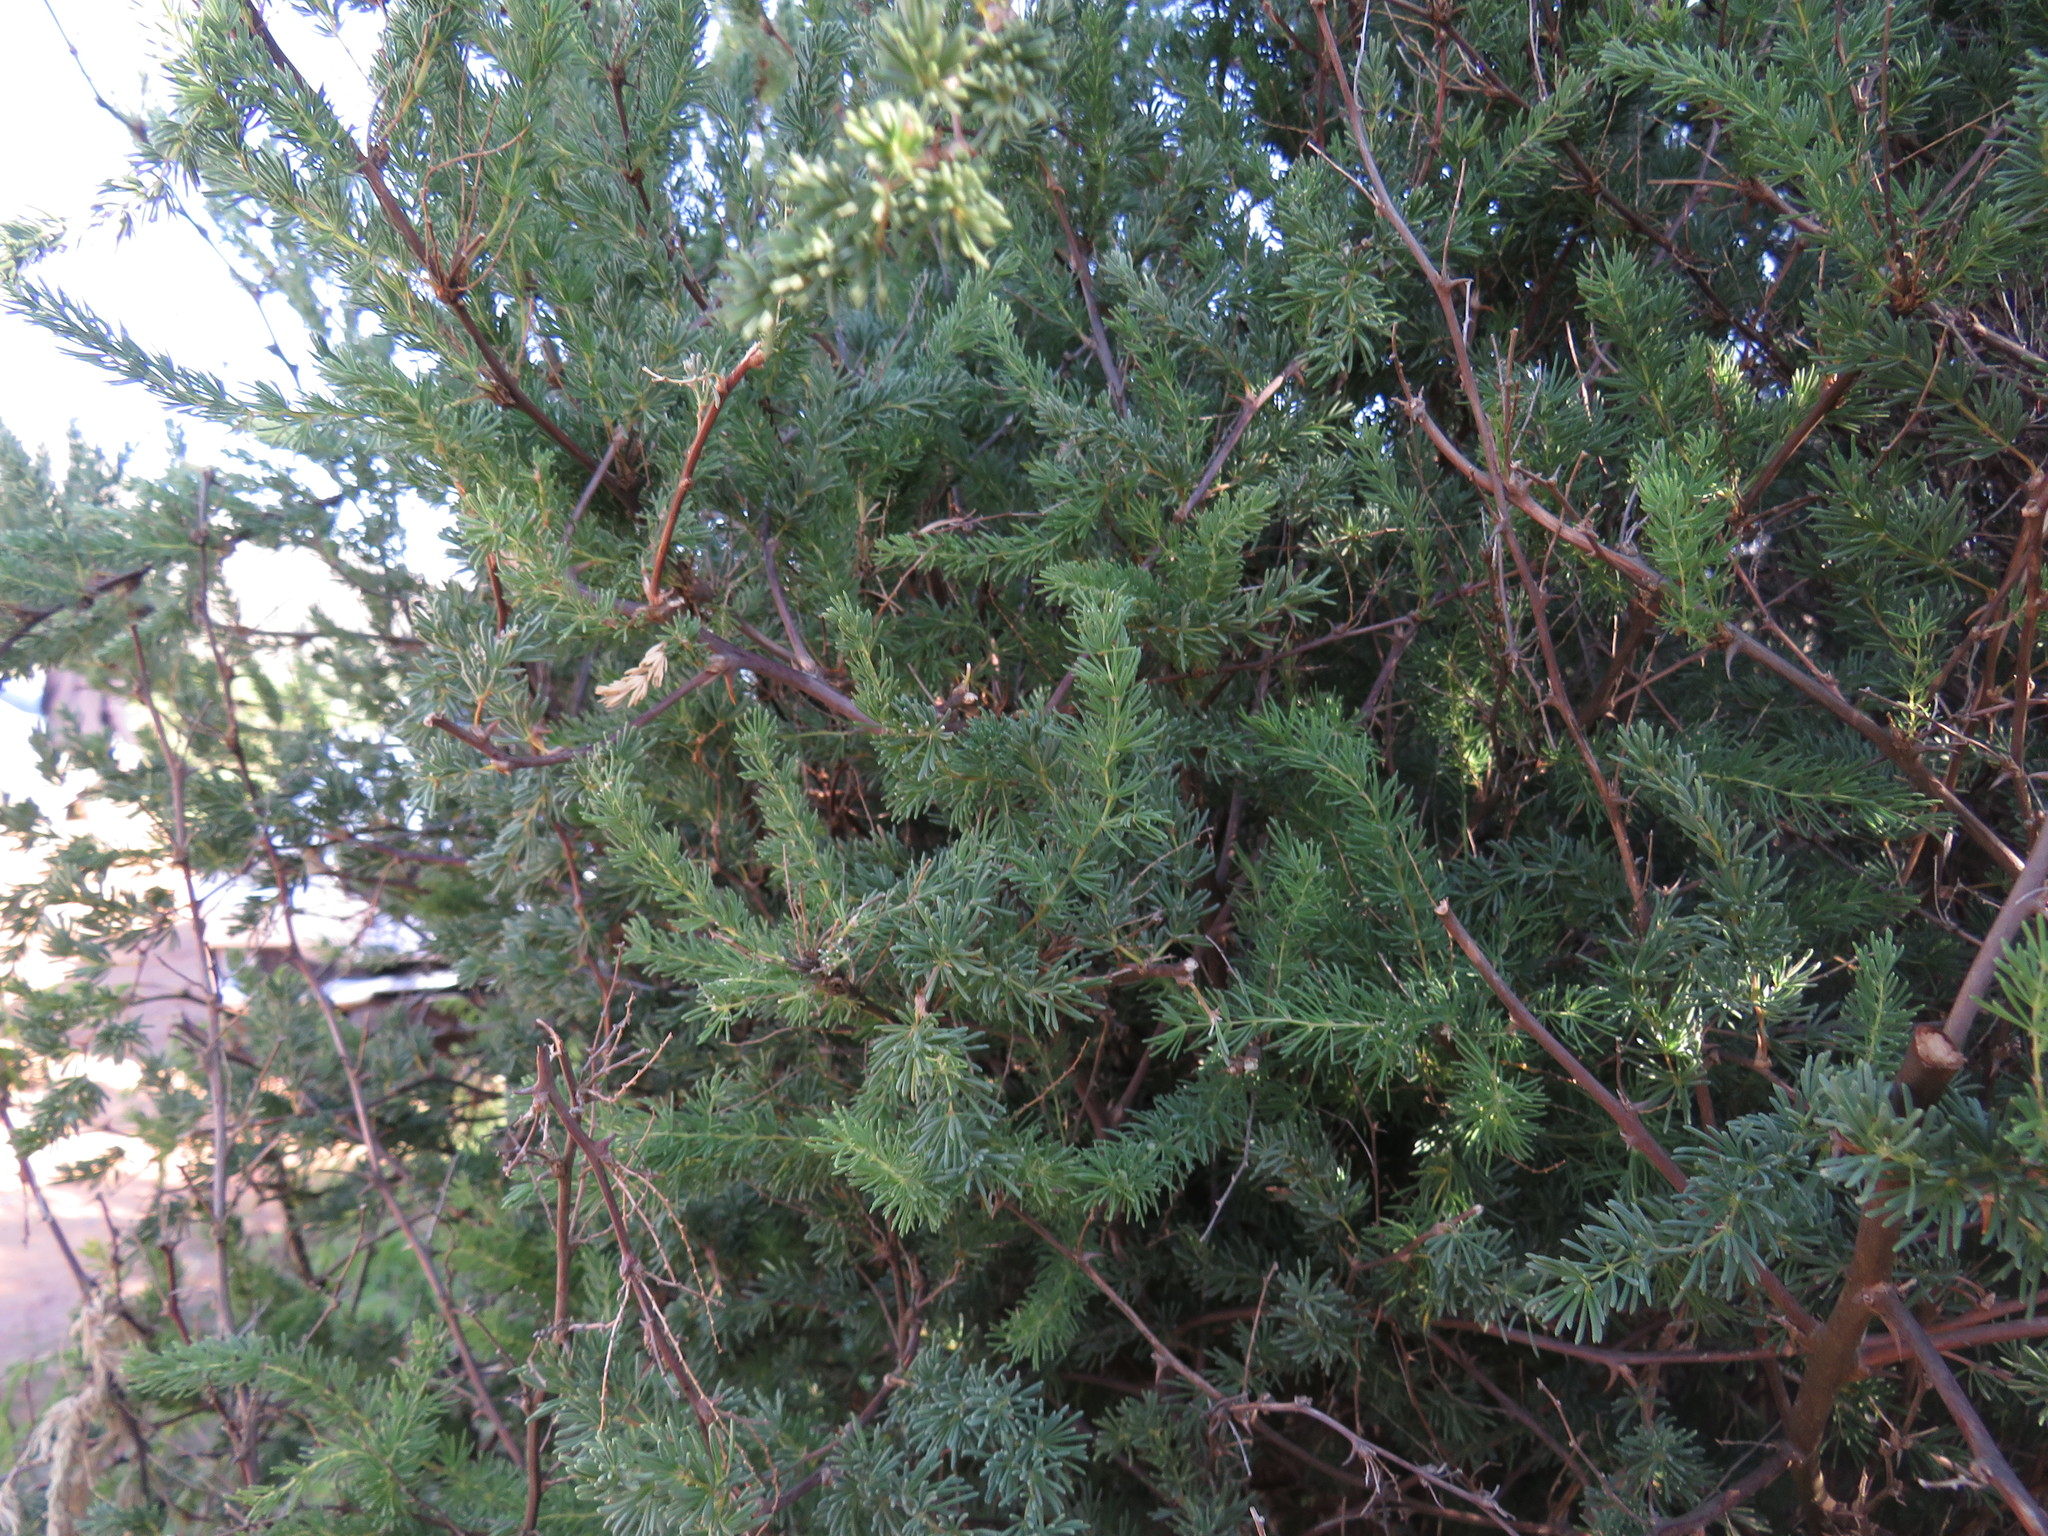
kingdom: Plantae
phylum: Tracheophyta
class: Liliopsida
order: Asparagales
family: Asparagaceae
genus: Asparagus
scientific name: Asparagus rubicundus
